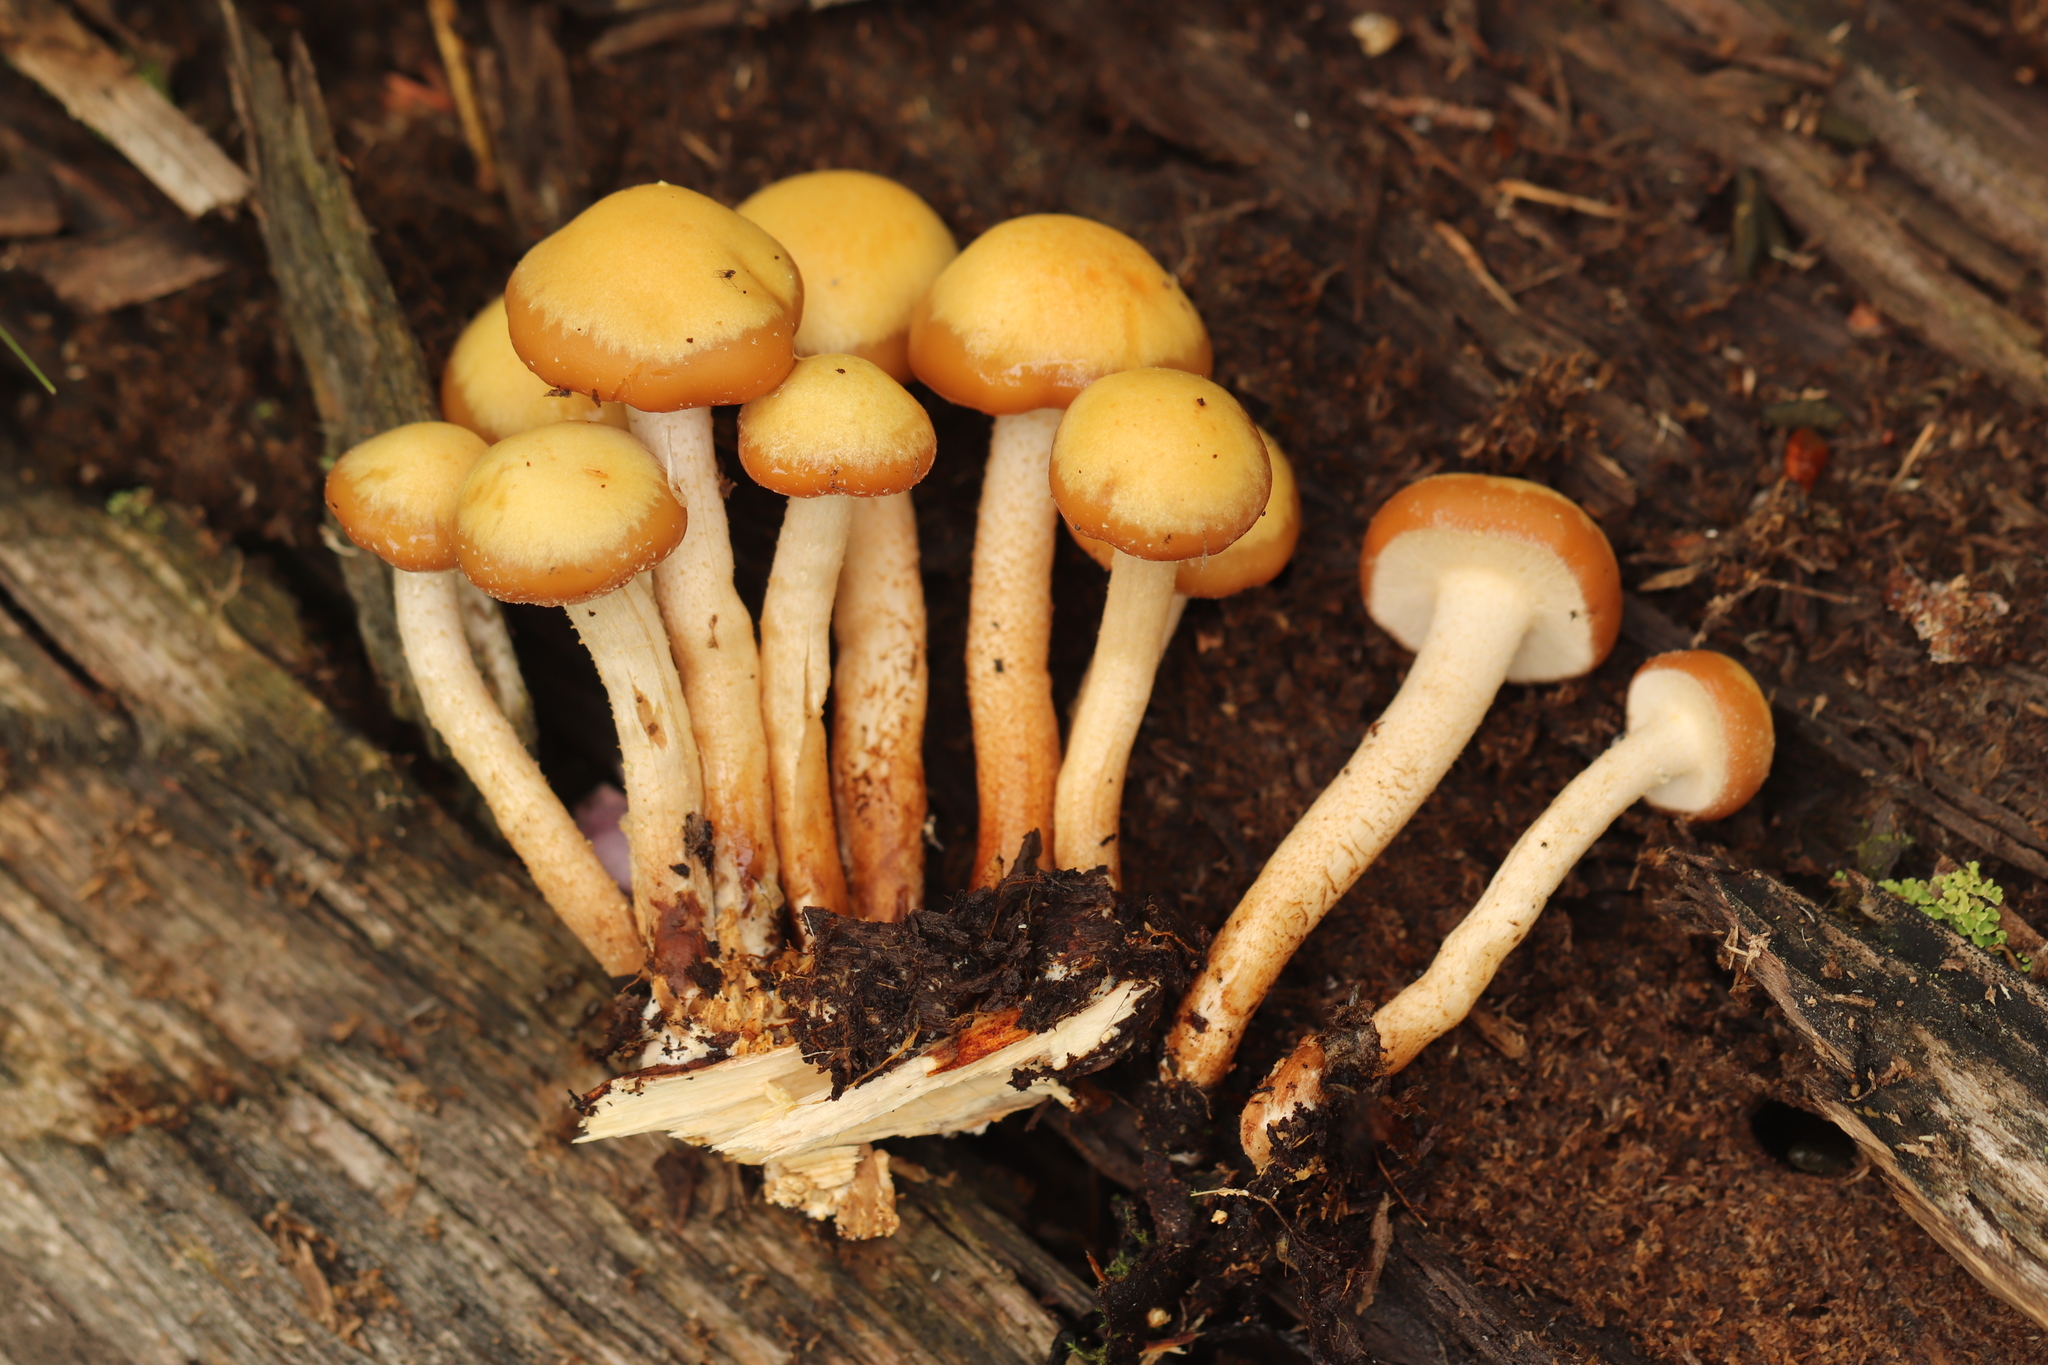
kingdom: Fungi
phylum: Basidiomycota
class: Agaricomycetes
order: Agaricales
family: Strophariaceae
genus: Kuehneromyces
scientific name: Kuehneromyces mutabilis
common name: Sheathed woodtuft
